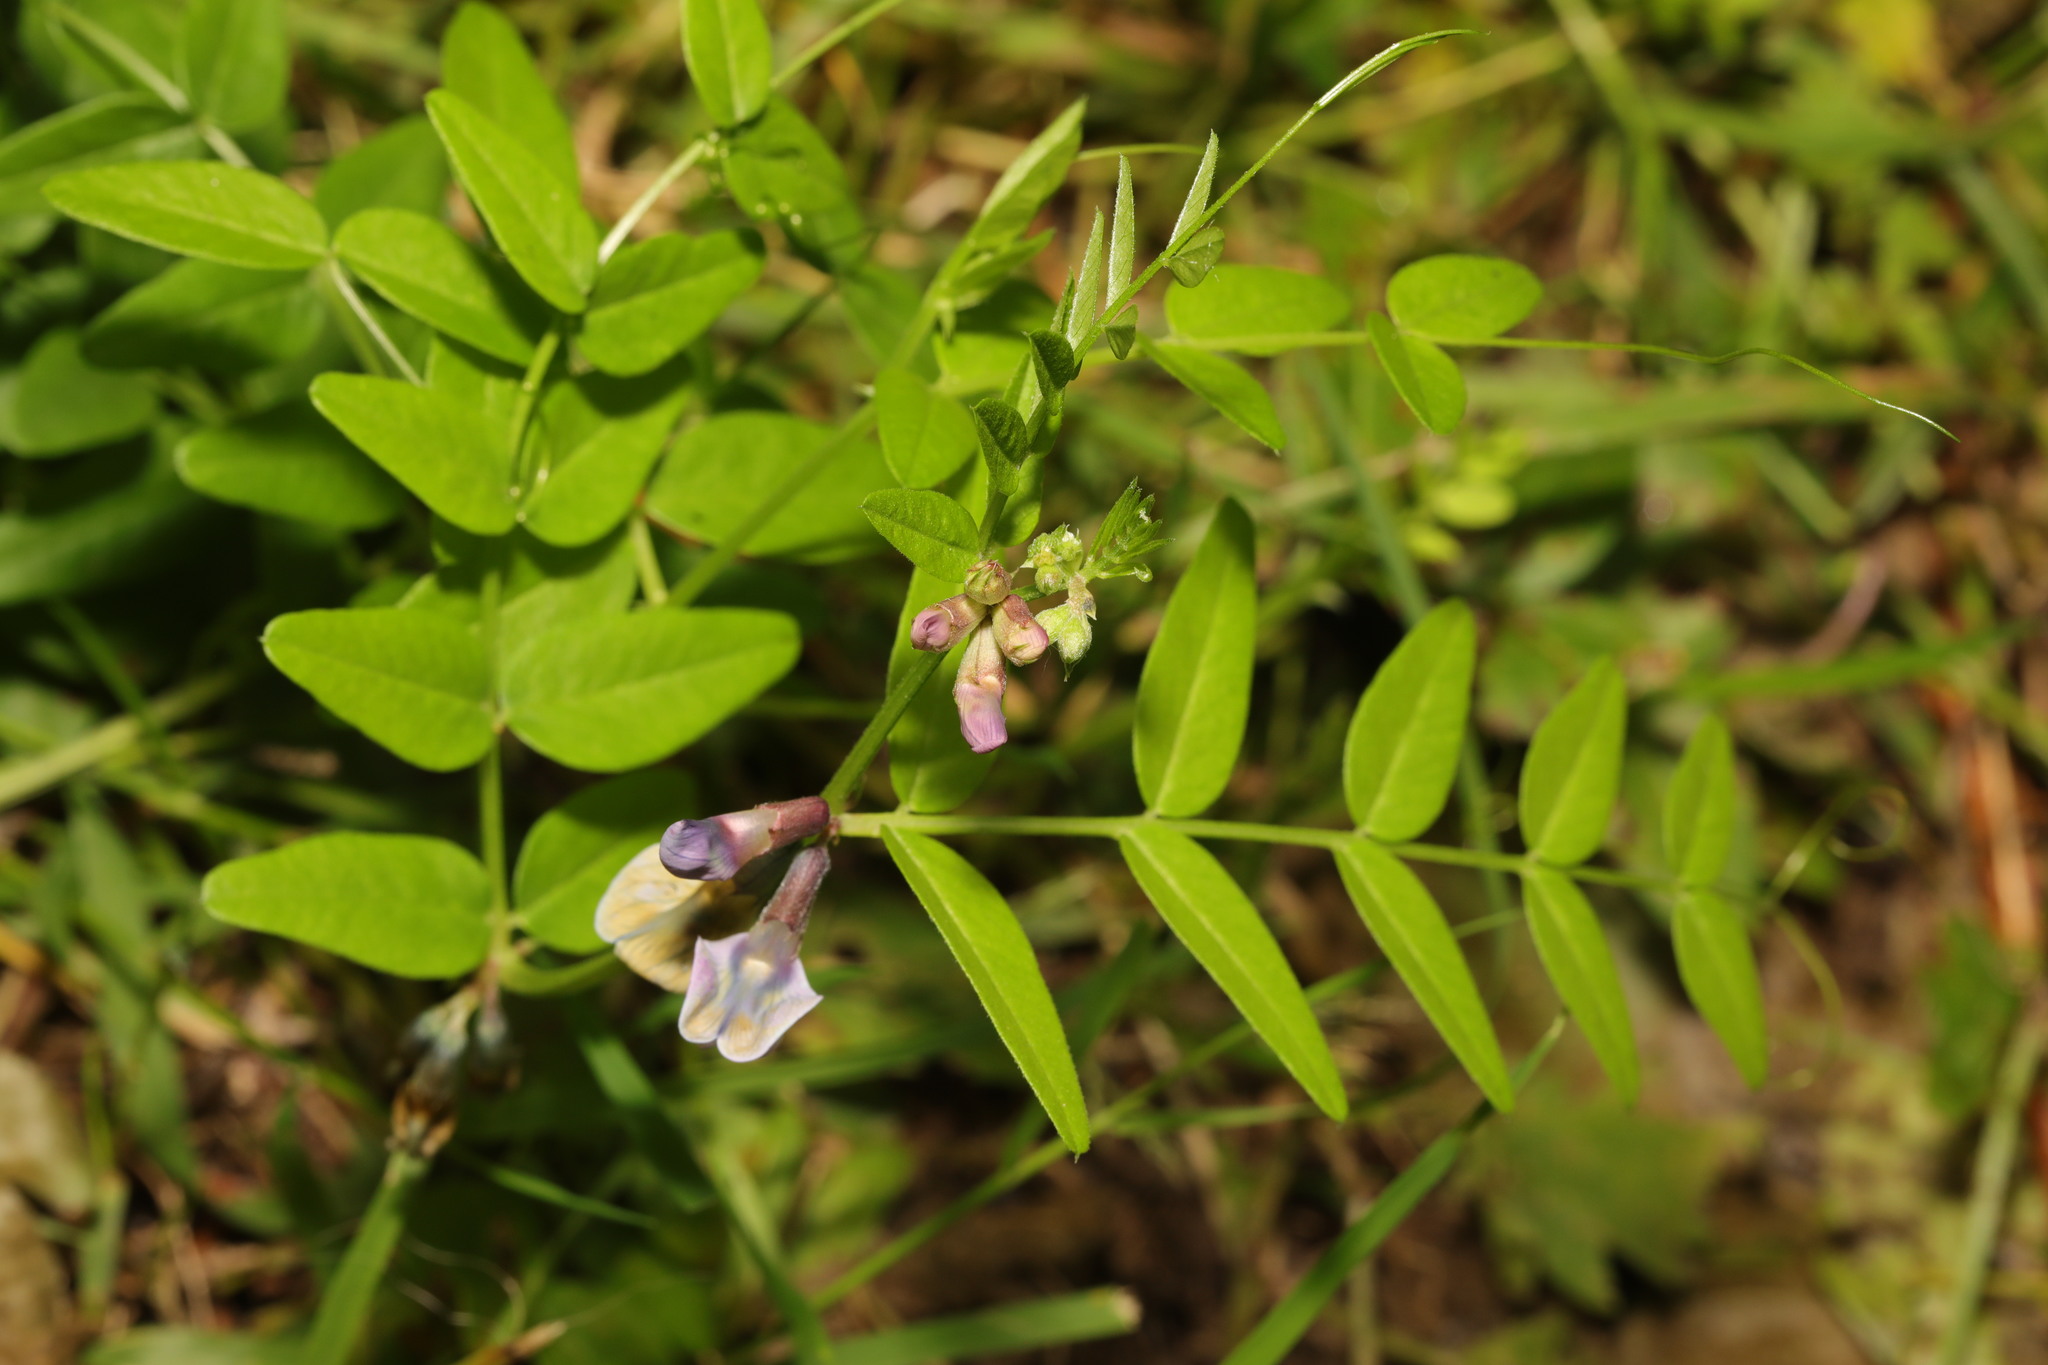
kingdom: Plantae
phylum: Tracheophyta
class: Magnoliopsida
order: Fabales
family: Fabaceae
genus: Vicia
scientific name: Vicia sepium
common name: Bush vetch
